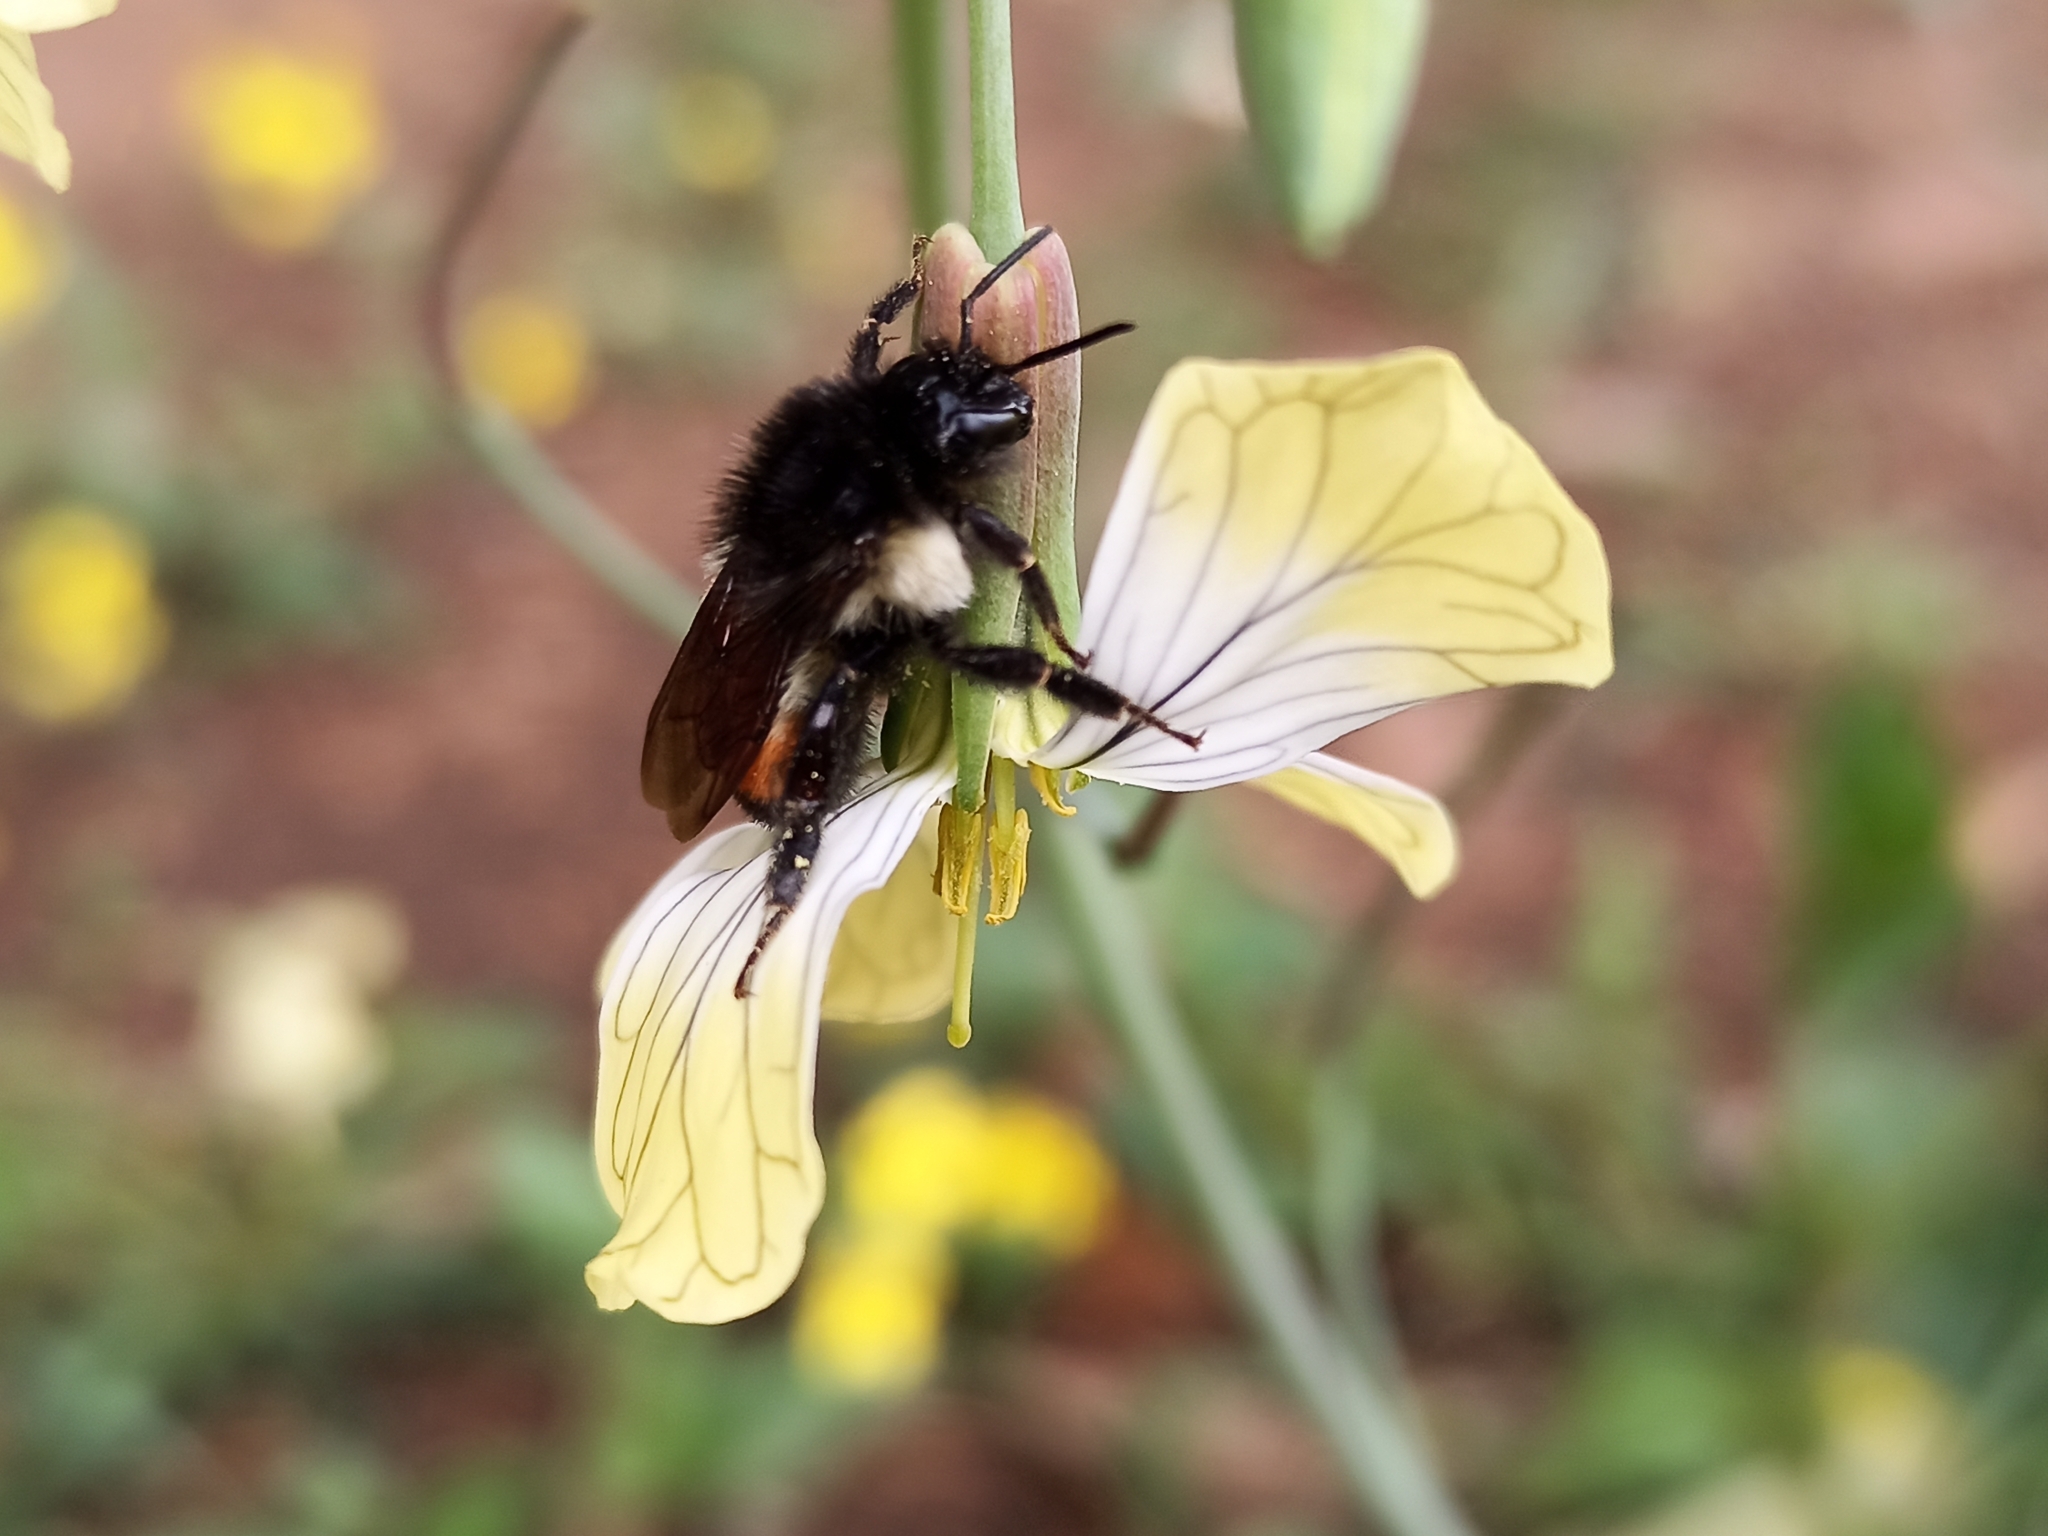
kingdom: Animalia
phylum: Arthropoda
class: Insecta
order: Hymenoptera
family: Apidae
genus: Bombus
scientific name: Bombus ephippiatus
